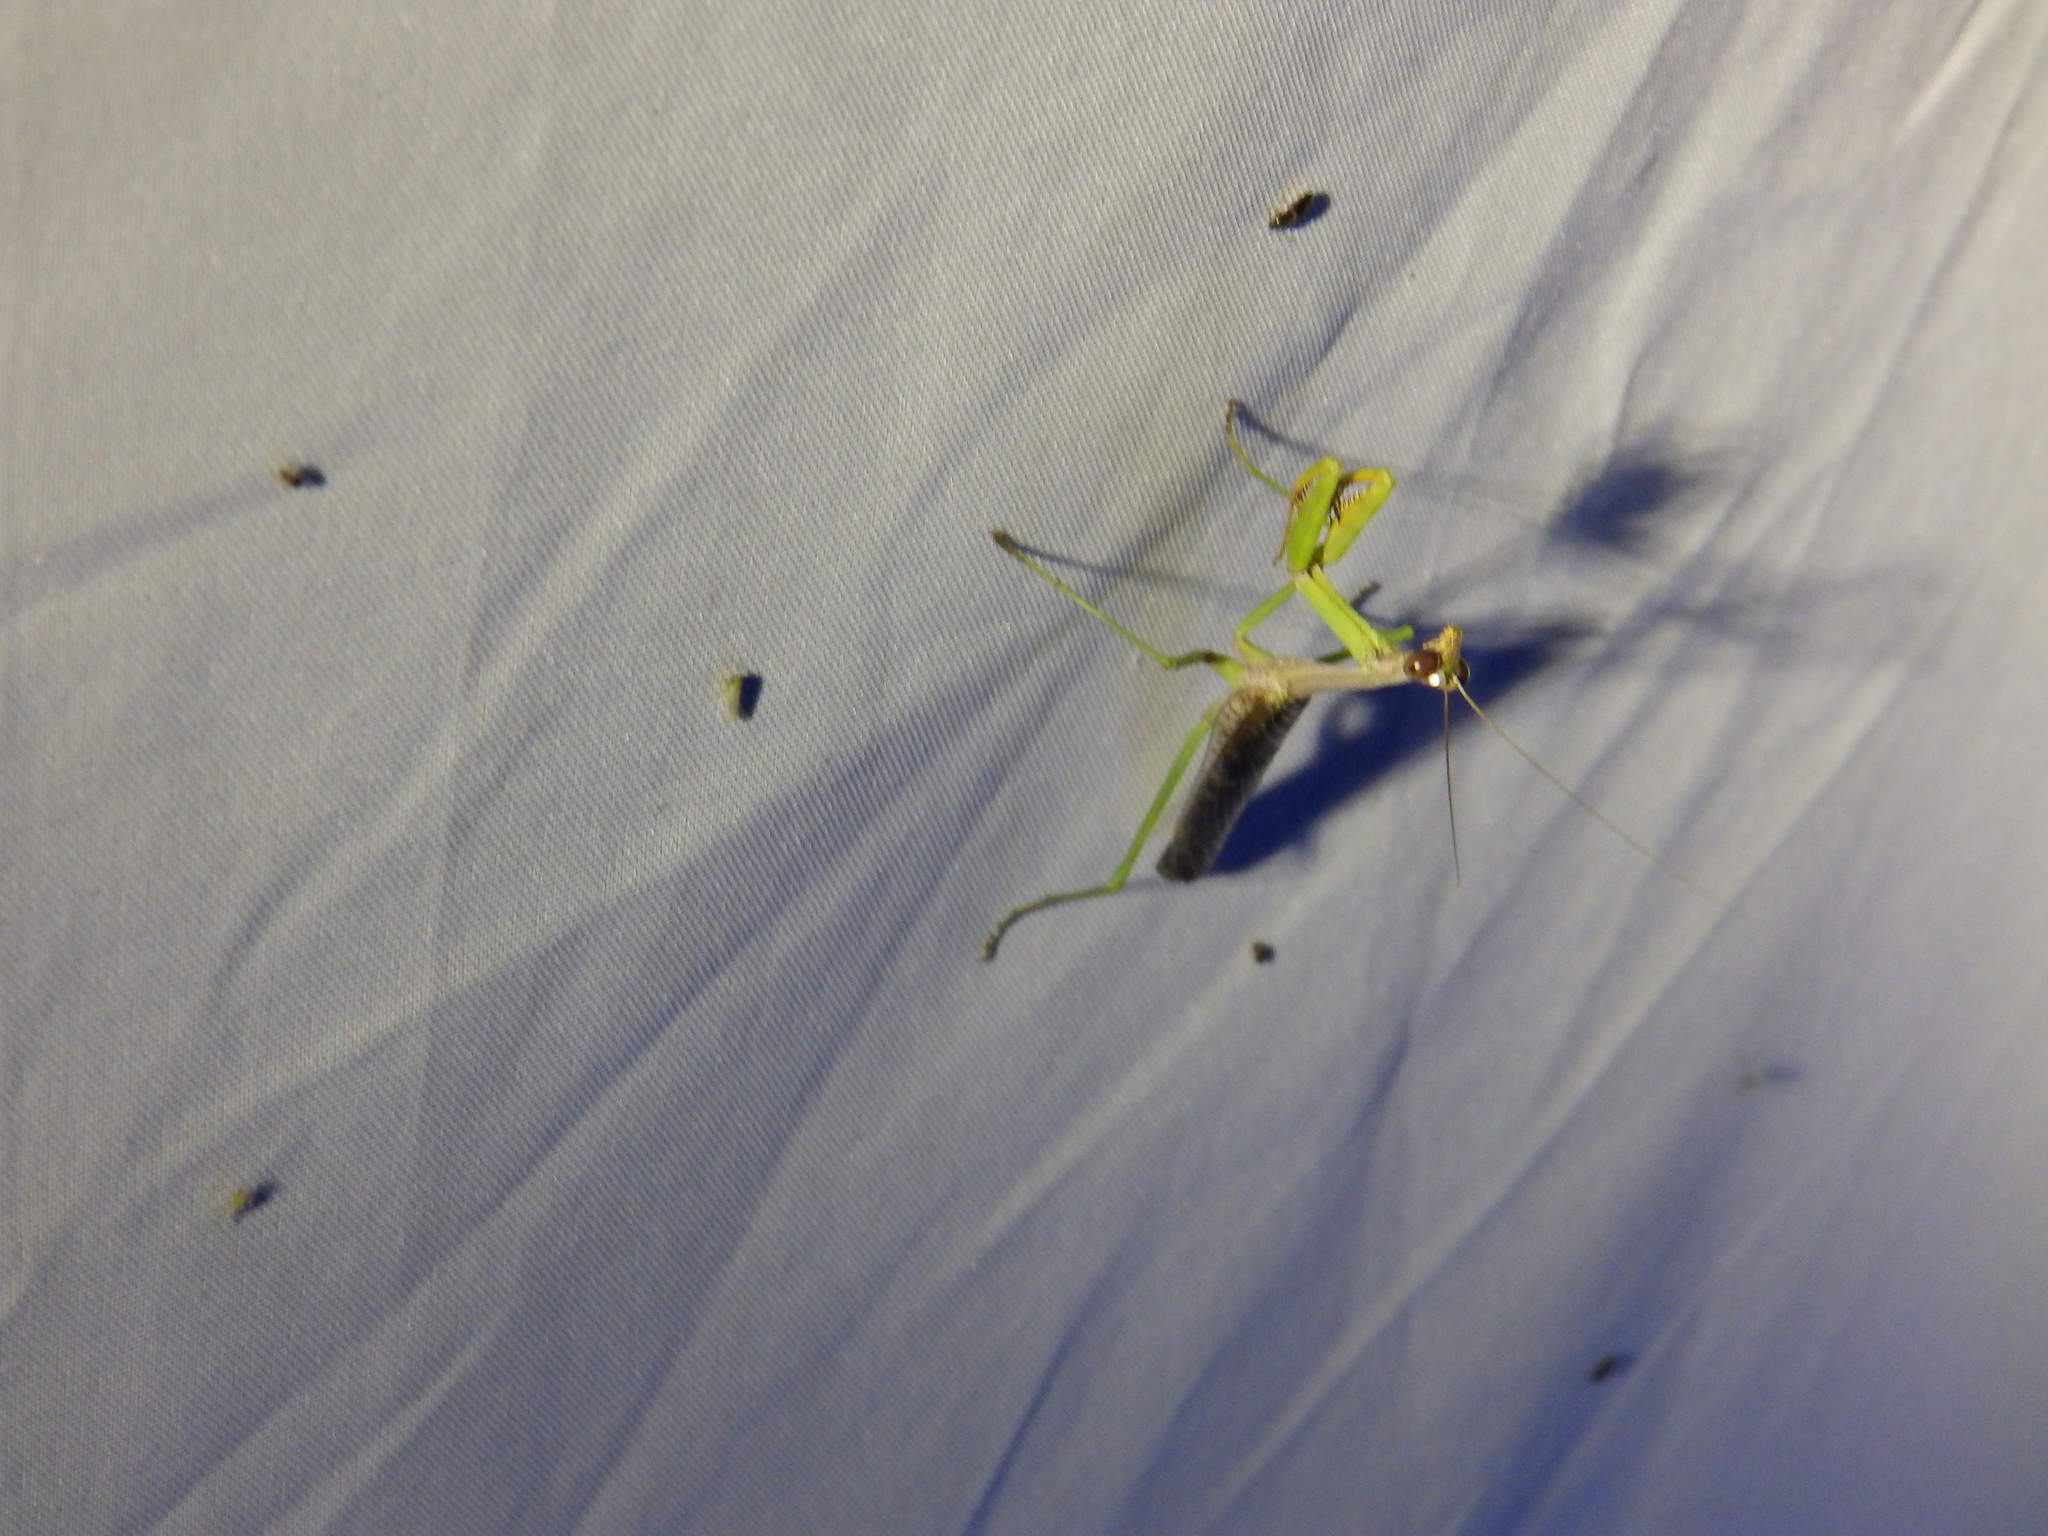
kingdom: Animalia
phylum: Arthropoda
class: Insecta
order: Mantodea
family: Mantidae
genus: Stagmomantis
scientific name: Stagmomantis carolina
